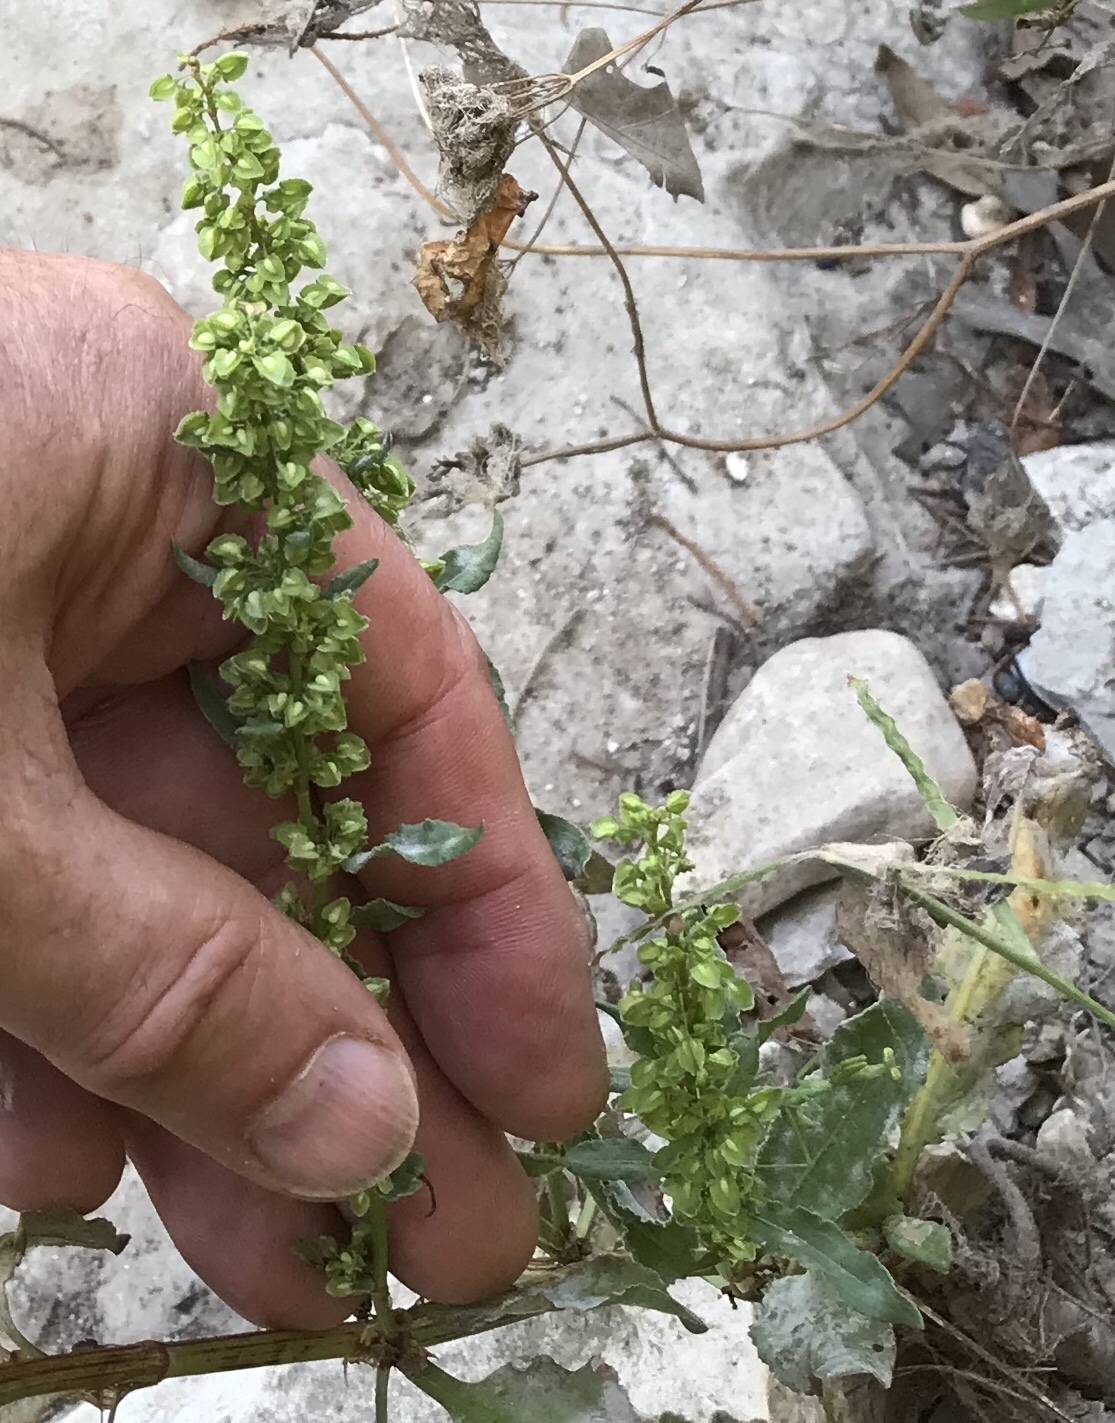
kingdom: Plantae
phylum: Tracheophyta
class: Magnoliopsida
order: Caryophyllales
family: Polygonaceae
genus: Rumex
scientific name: Rumex crispus
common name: Curled dock
